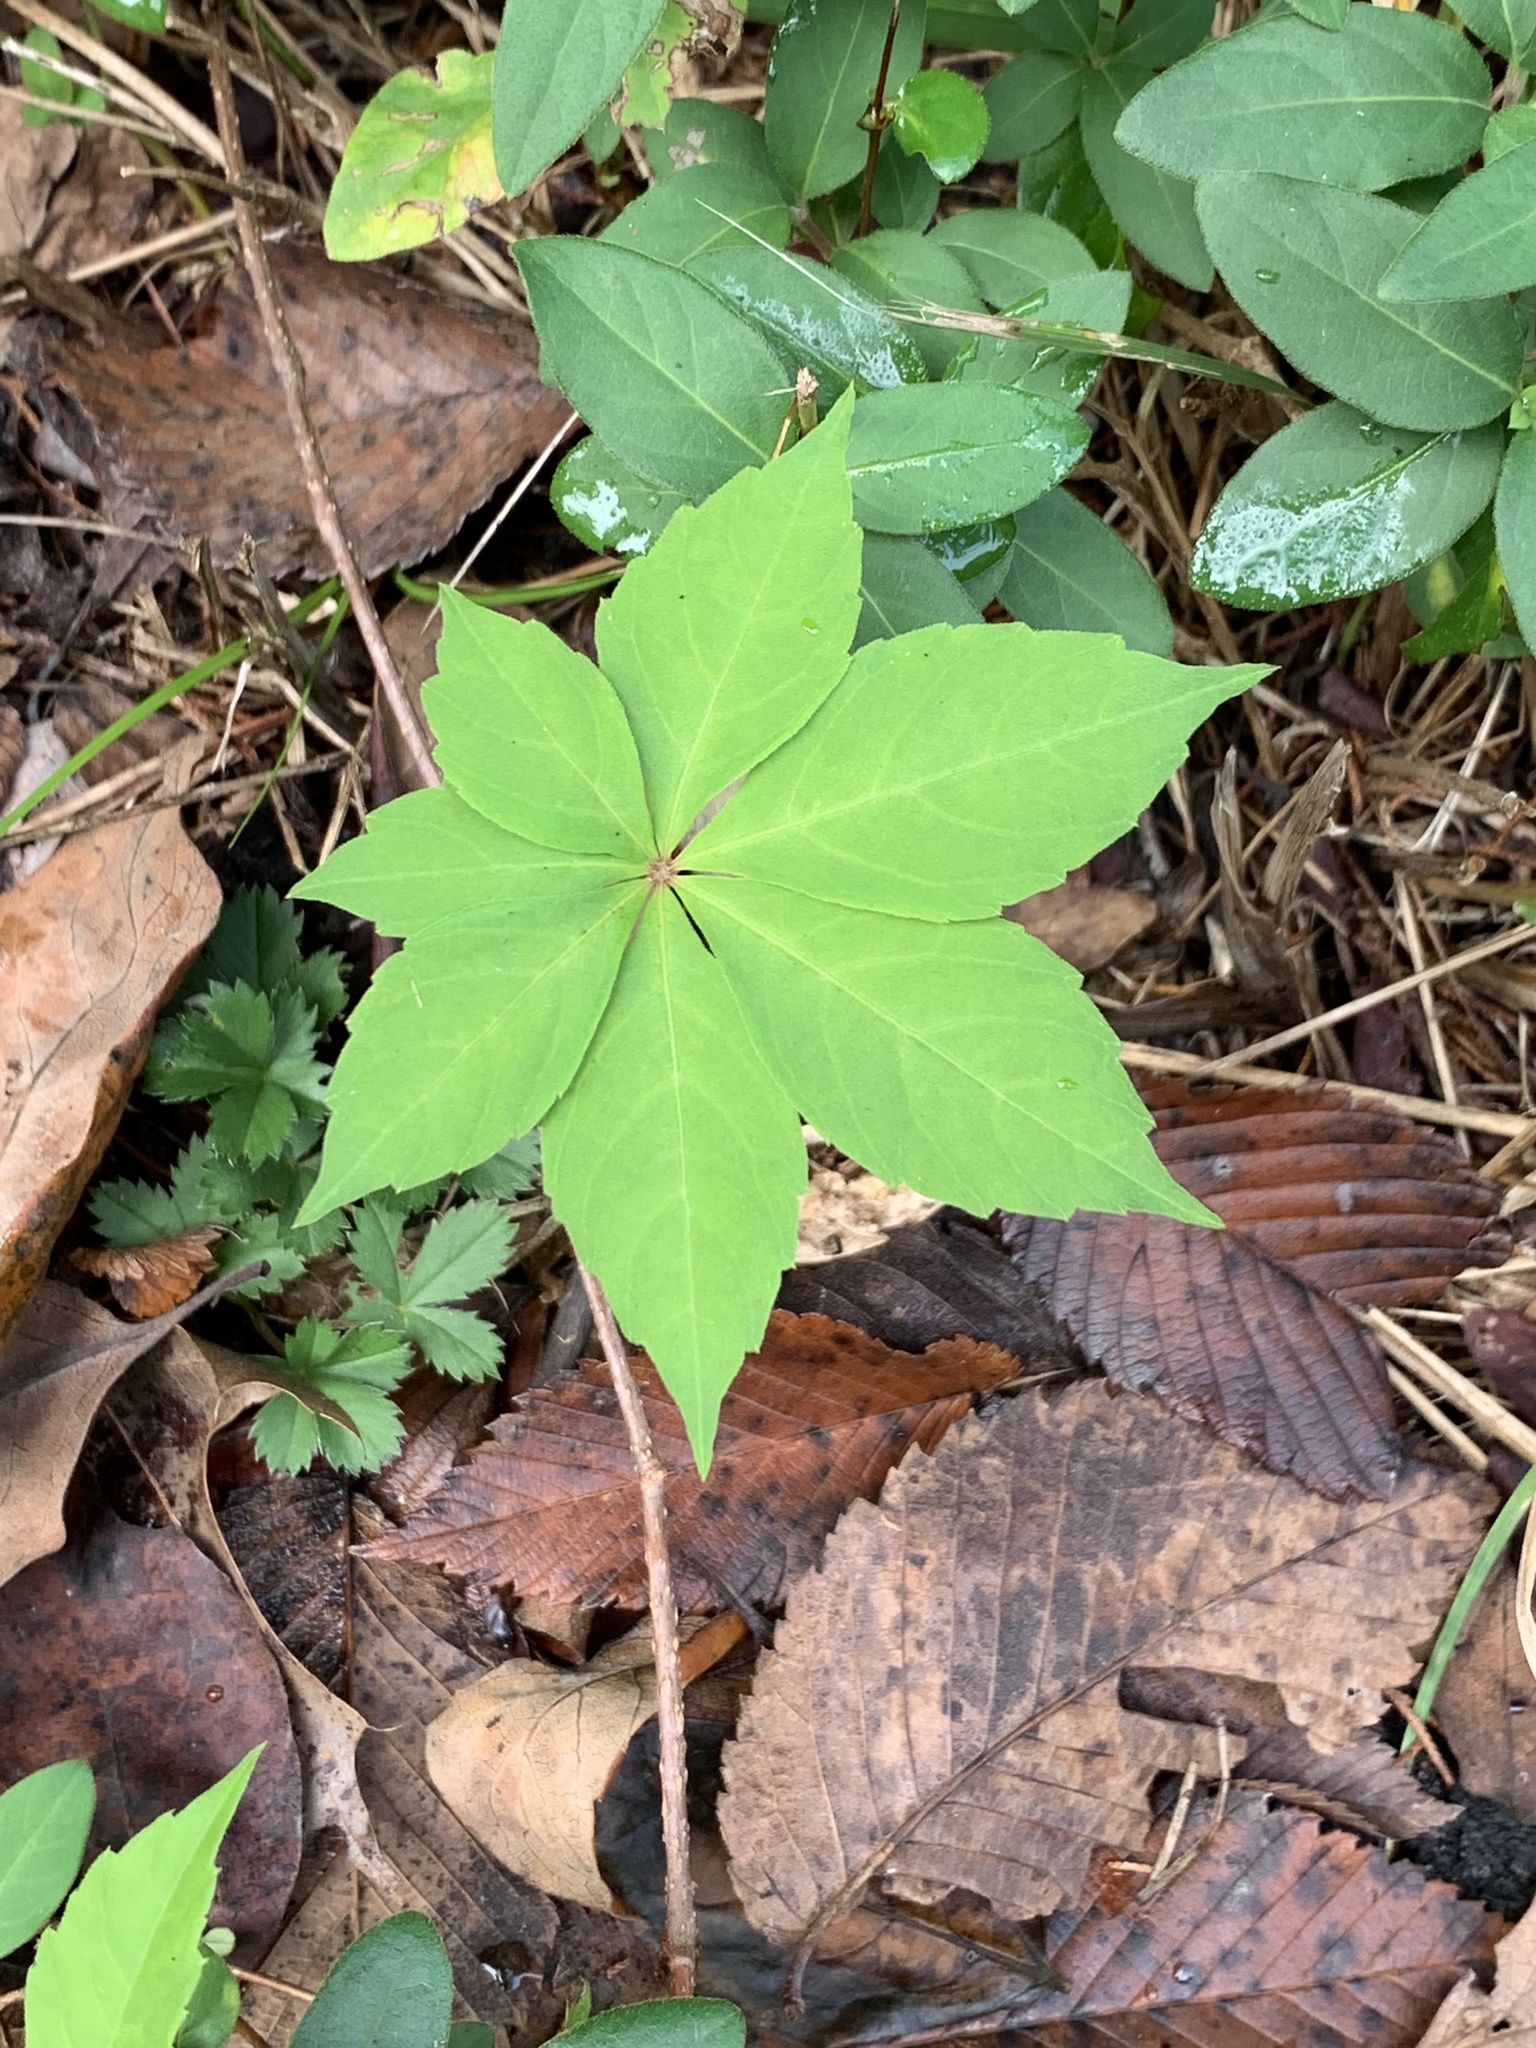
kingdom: Plantae
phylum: Tracheophyta
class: Magnoliopsida
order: Vitales
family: Vitaceae
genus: Parthenocissus
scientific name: Parthenocissus quinquefolia
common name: Virginia-creeper
